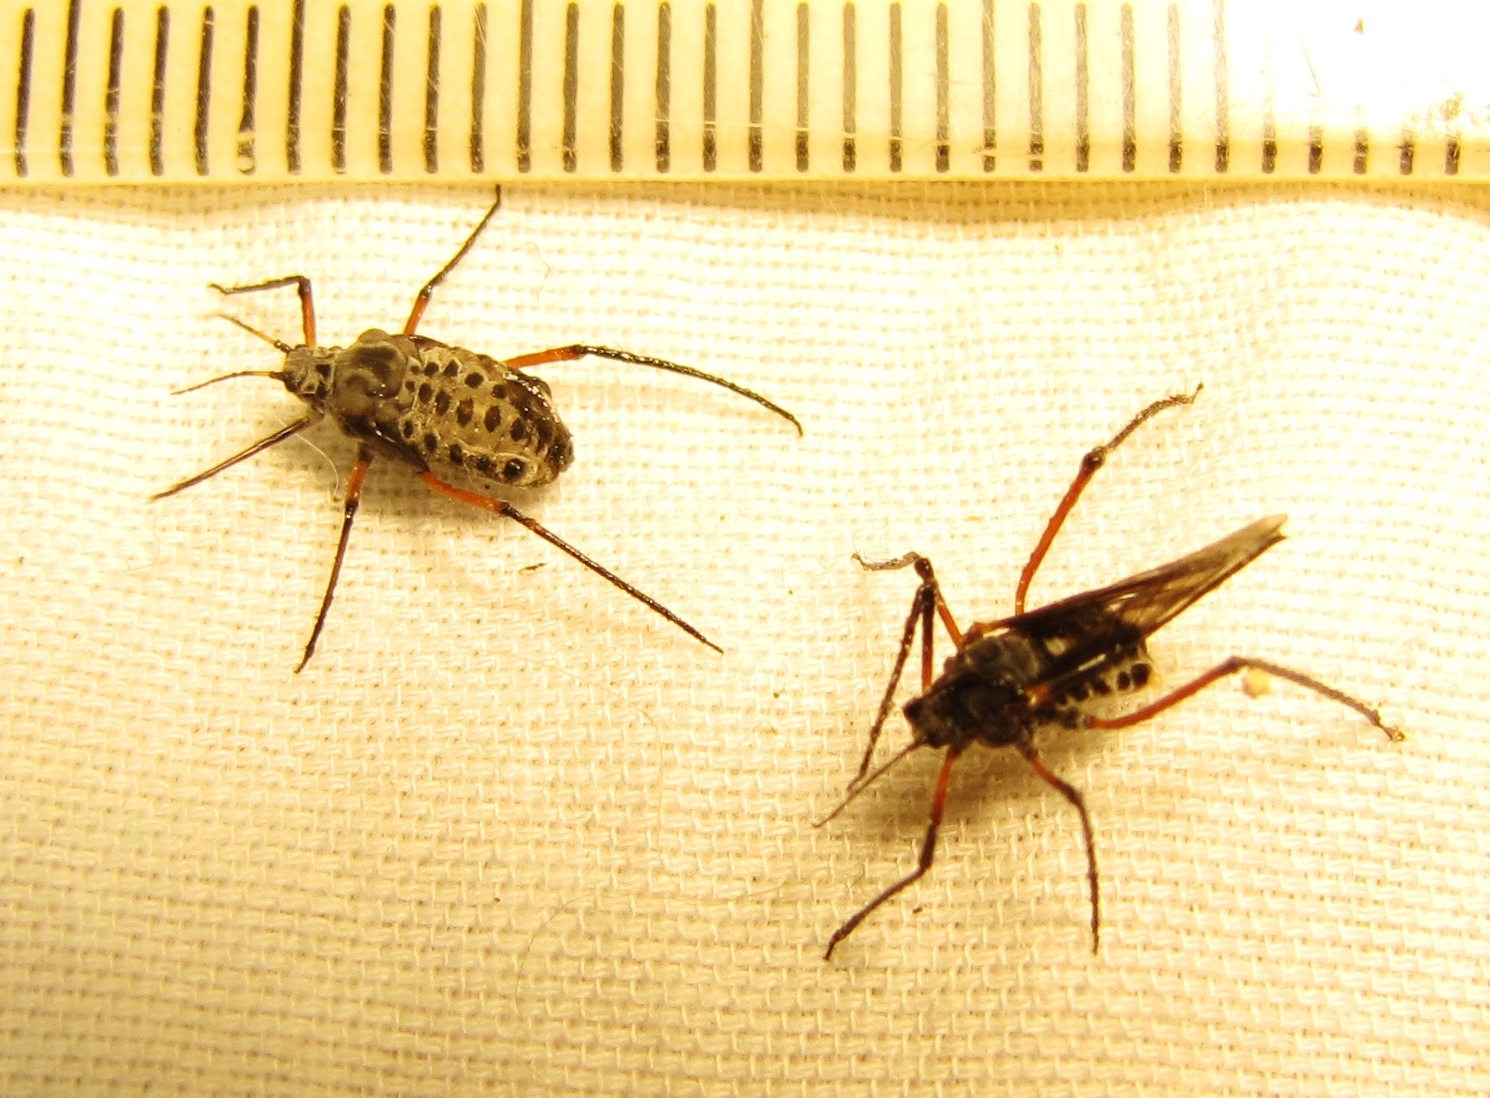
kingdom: Animalia
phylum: Arthropoda
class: Insecta
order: Hemiptera
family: Aphididae
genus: Longistigma
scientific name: Longistigma caryae
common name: Giant bark aphid
